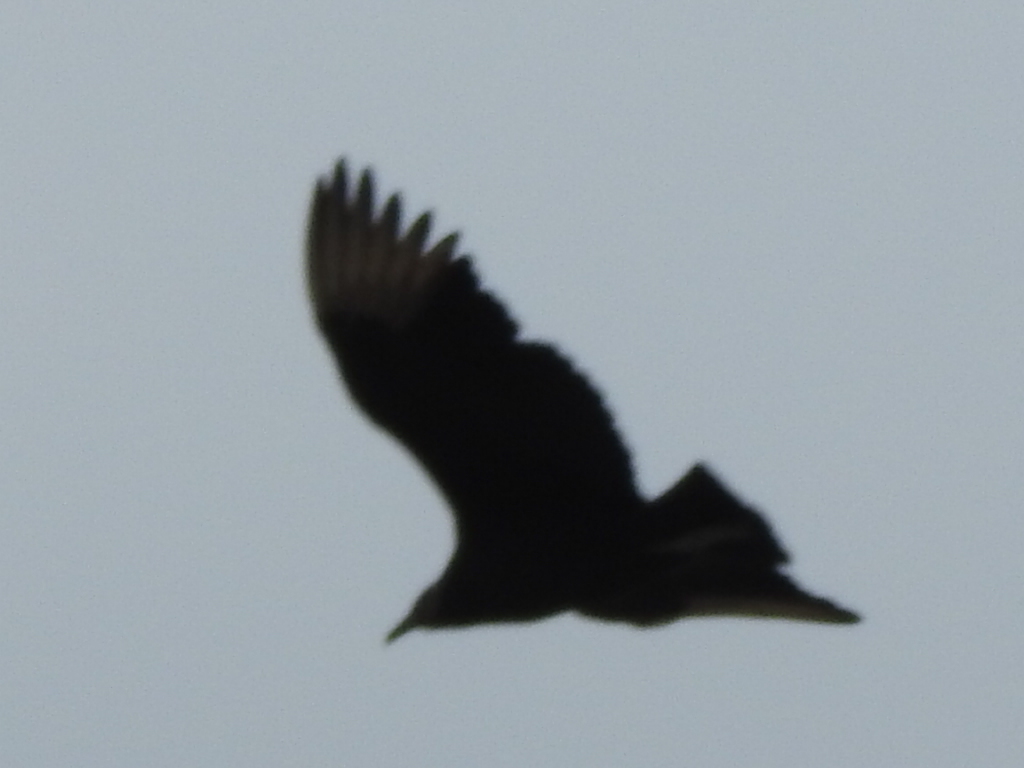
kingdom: Animalia
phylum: Chordata
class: Aves
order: Accipitriformes
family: Cathartidae
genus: Coragyps
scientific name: Coragyps atratus
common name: Black vulture
